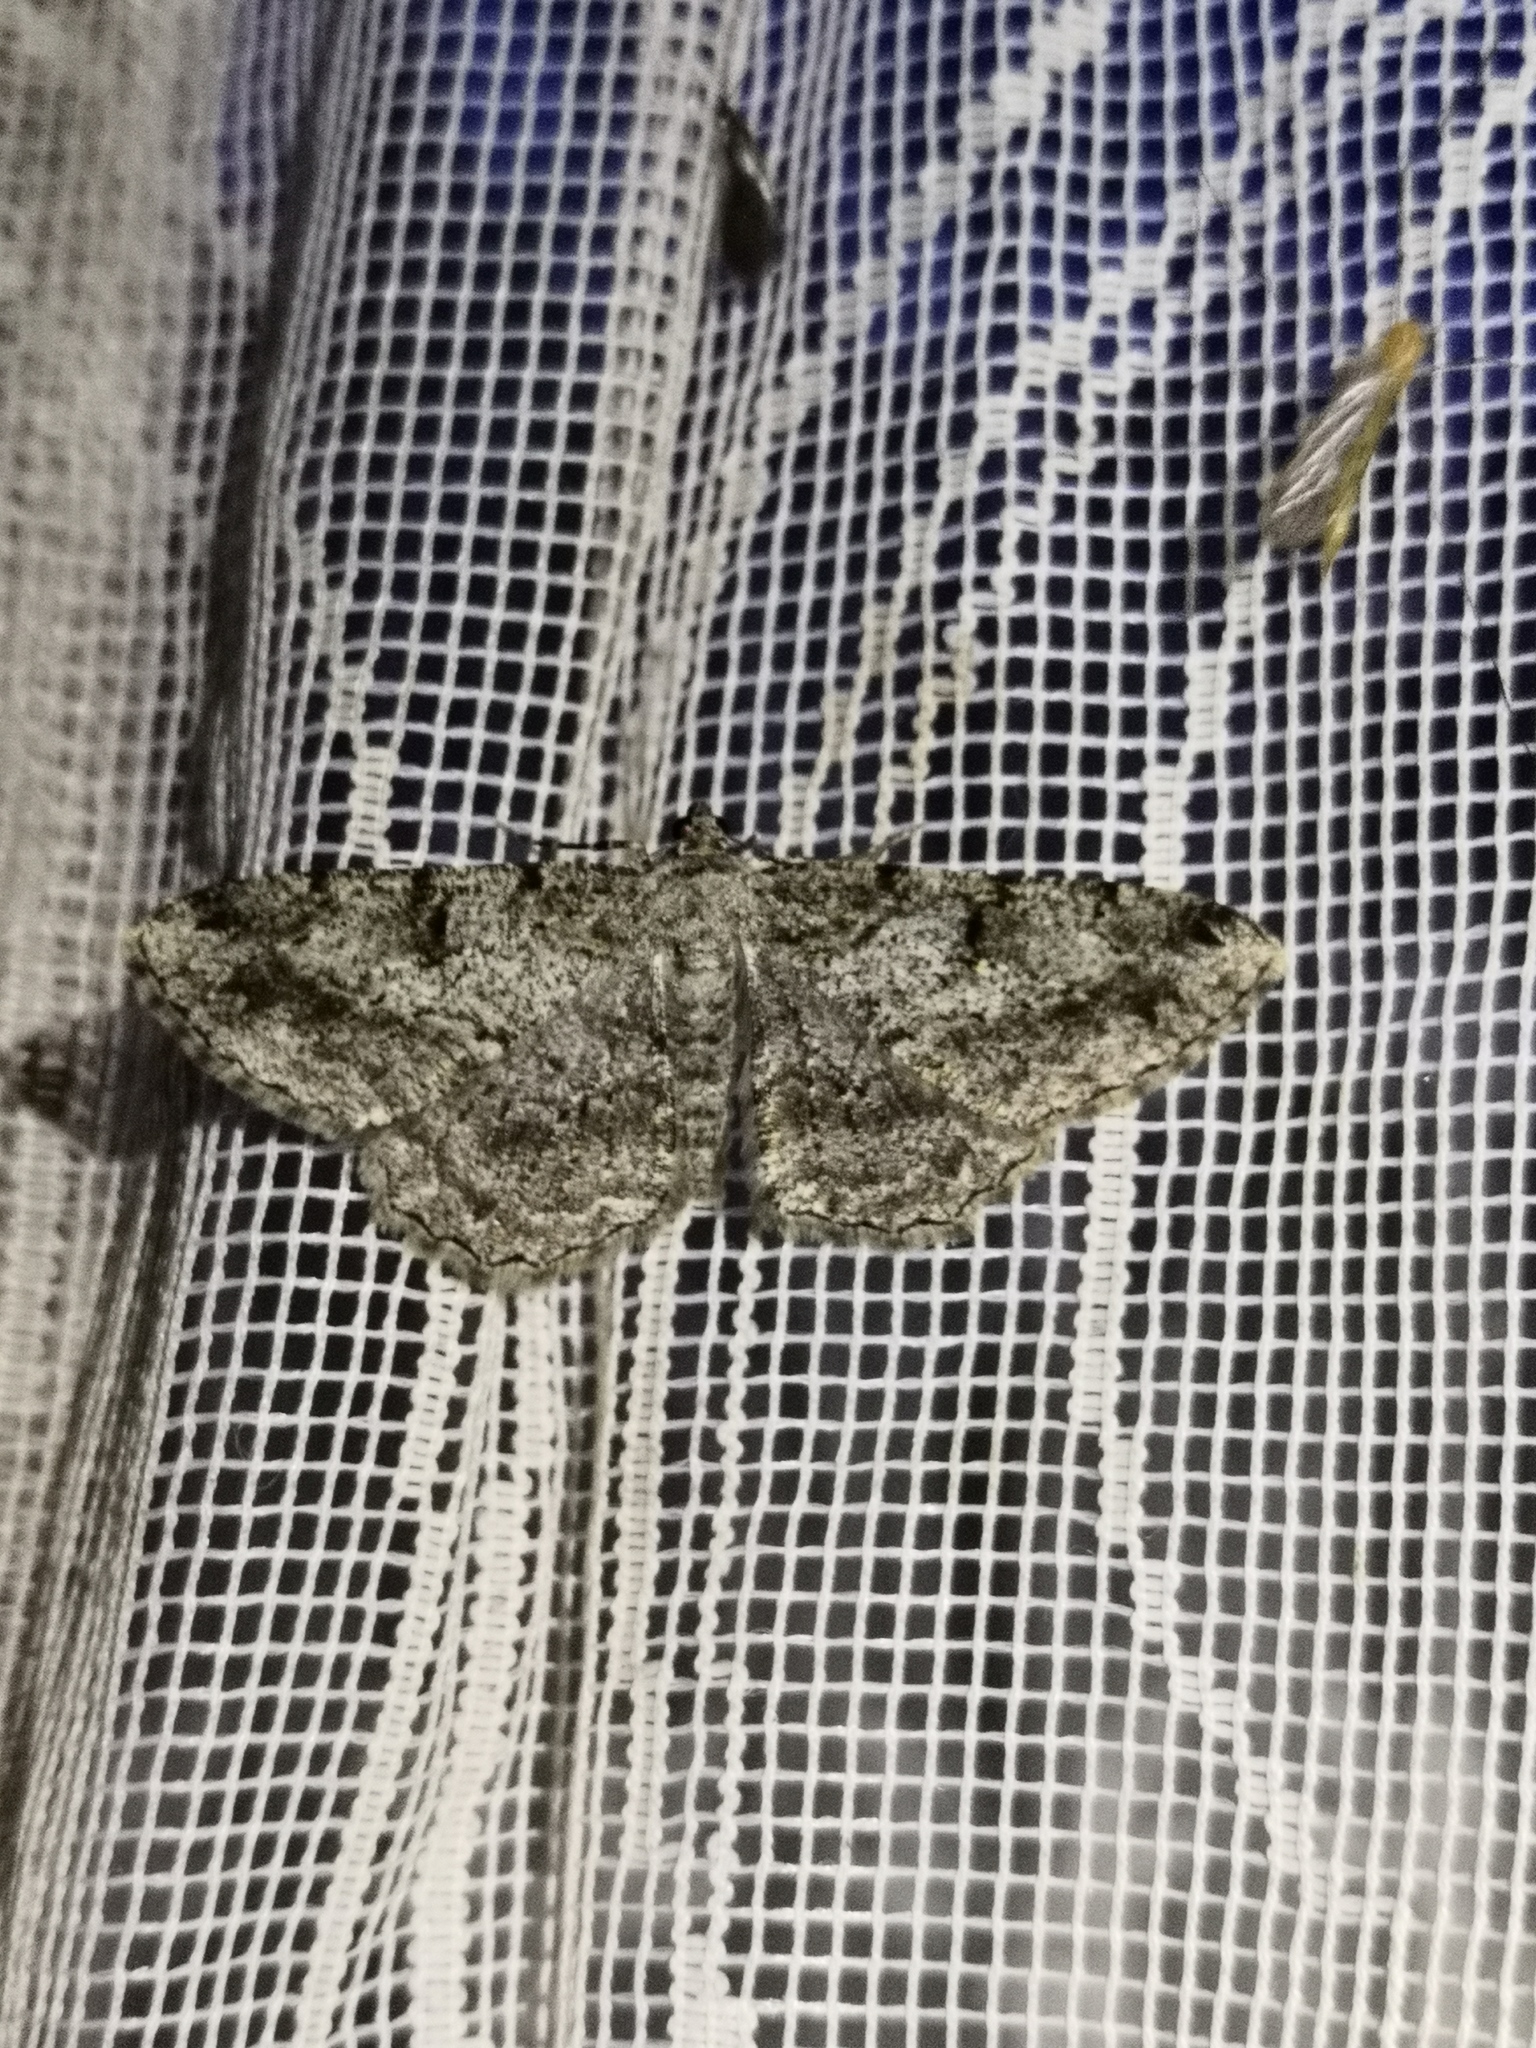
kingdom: Animalia
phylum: Arthropoda
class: Insecta
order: Lepidoptera
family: Geometridae
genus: Peribatodes
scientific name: Peribatodes rhomboidaria
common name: Willow beauty
